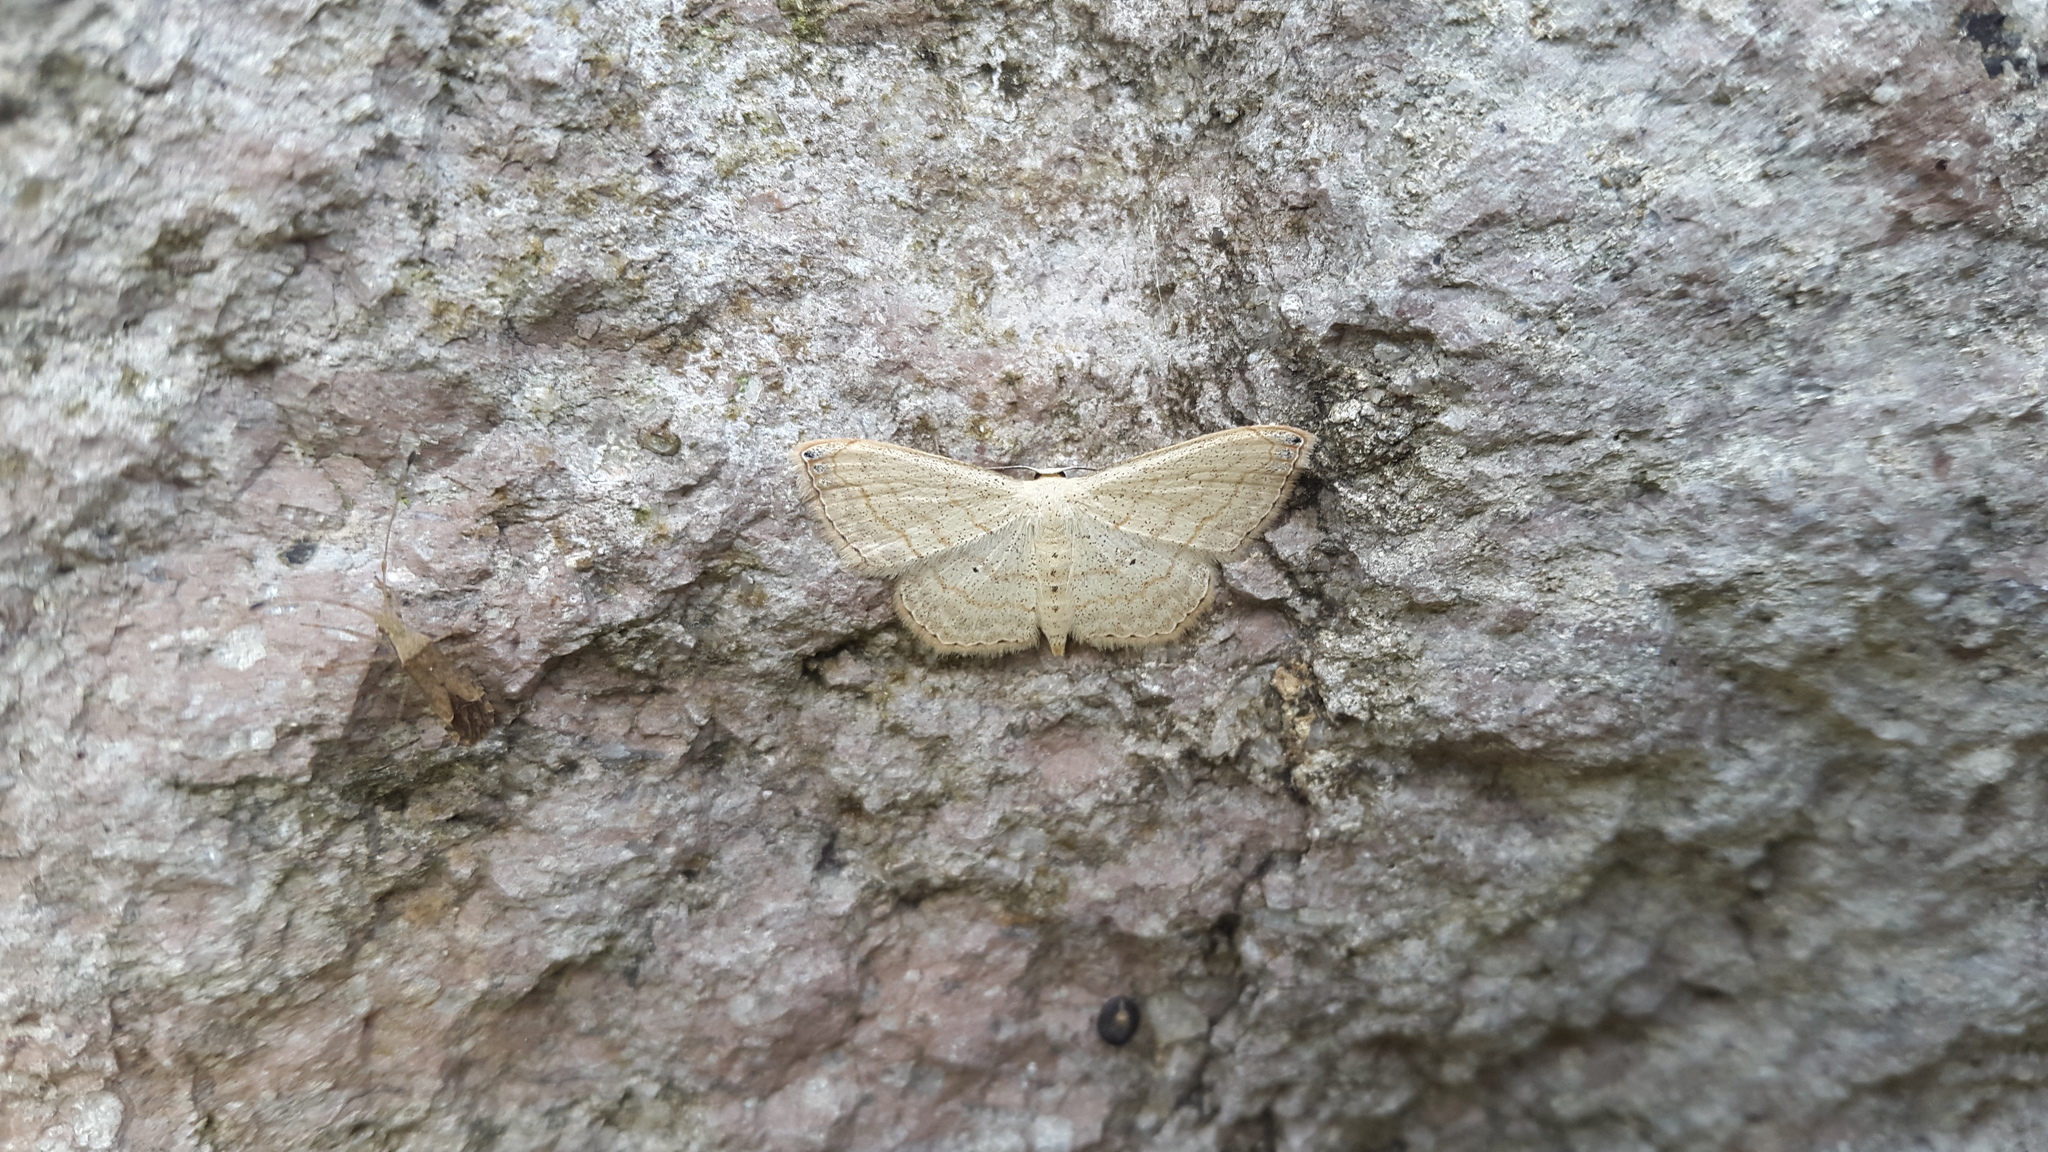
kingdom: Animalia
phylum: Arthropoda
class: Insecta
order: Lepidoptera
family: Geometridae
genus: Scopula
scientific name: Scopula umbilicata
